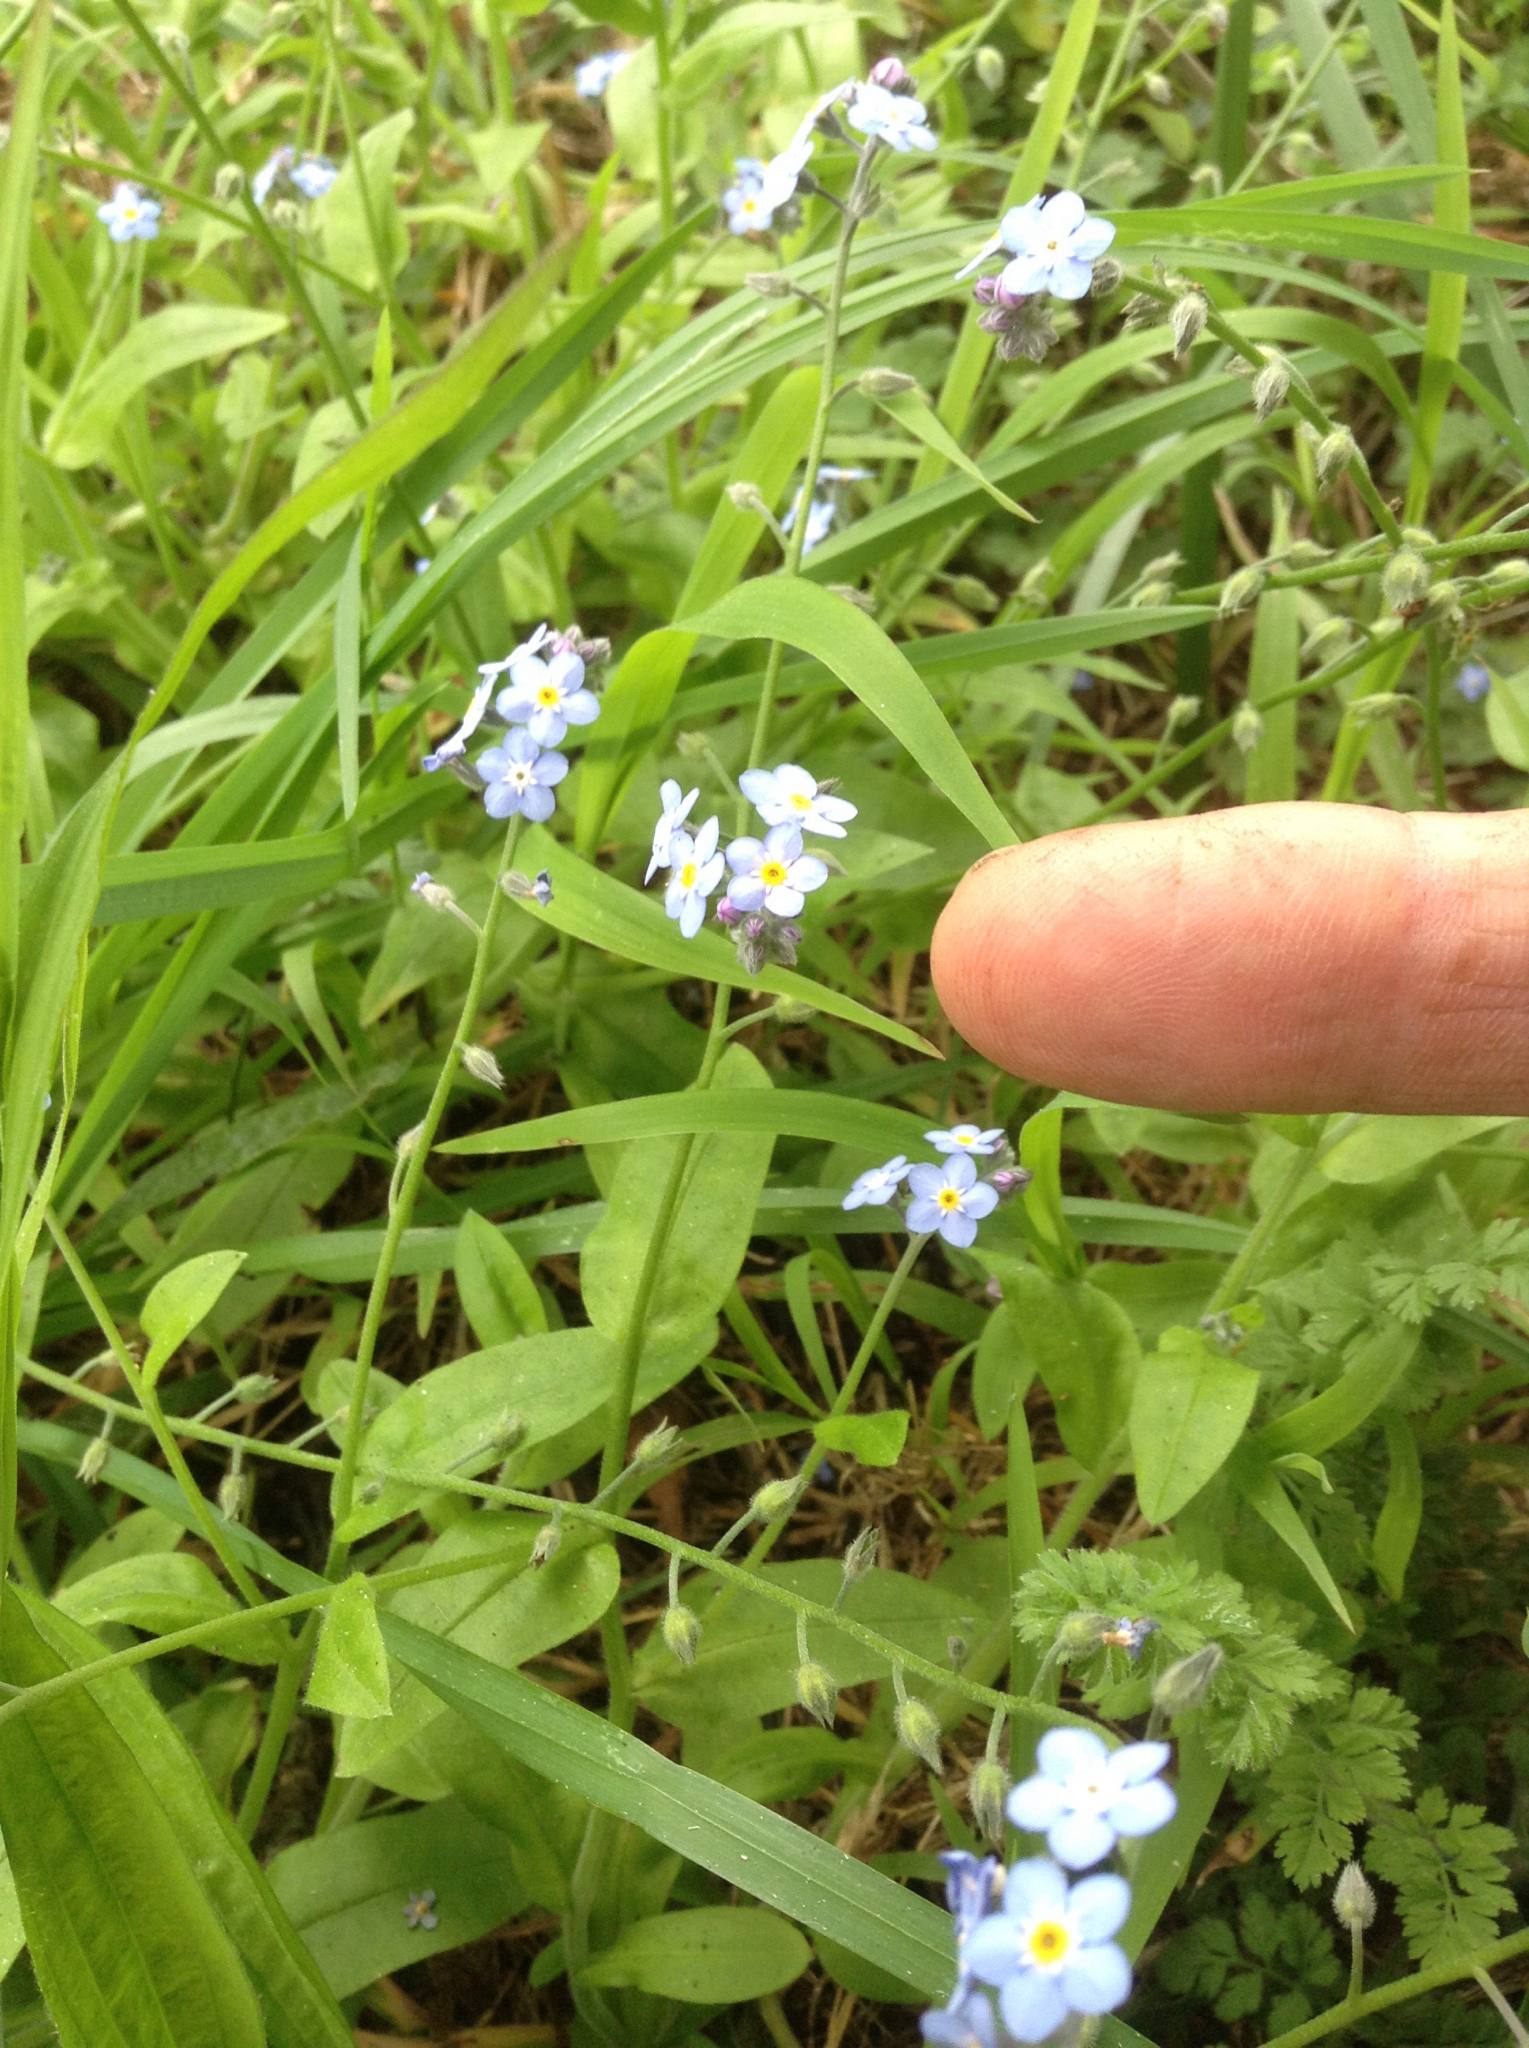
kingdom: Plantae
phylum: Tracheophyta
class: Magnoliopsida
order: Boraginales
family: Boraginaceae
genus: Myosotis
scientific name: Myosotis arvensis
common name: Field forget-me-not
